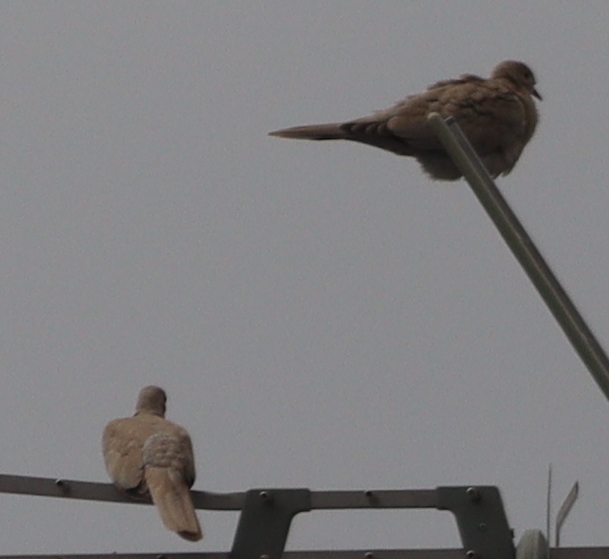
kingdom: Animalia
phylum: Chordata
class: Aves
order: Columbiformes
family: Columbidae
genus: Streptopelia
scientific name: Streptopelia decaocto
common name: Eurasian collared dove
